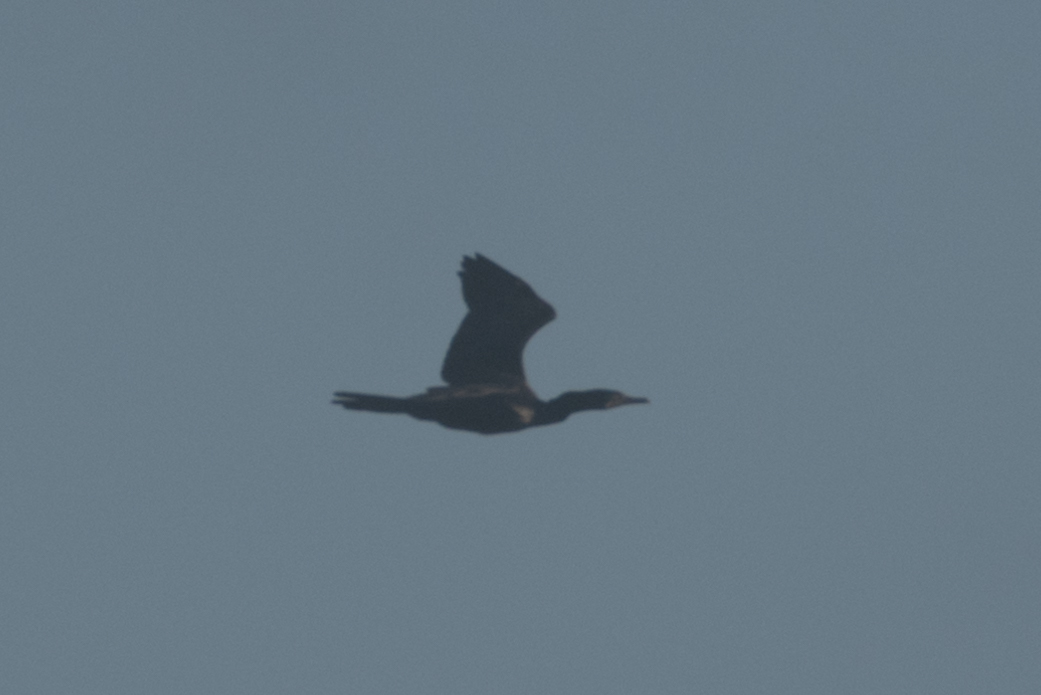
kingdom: Animalia
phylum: Chordata
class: Aves
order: Suliformes
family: Phalacrocoracidae
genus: Phalacrocorax
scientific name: Phalacrocorax brasilianus
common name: Neotropic cormorant
